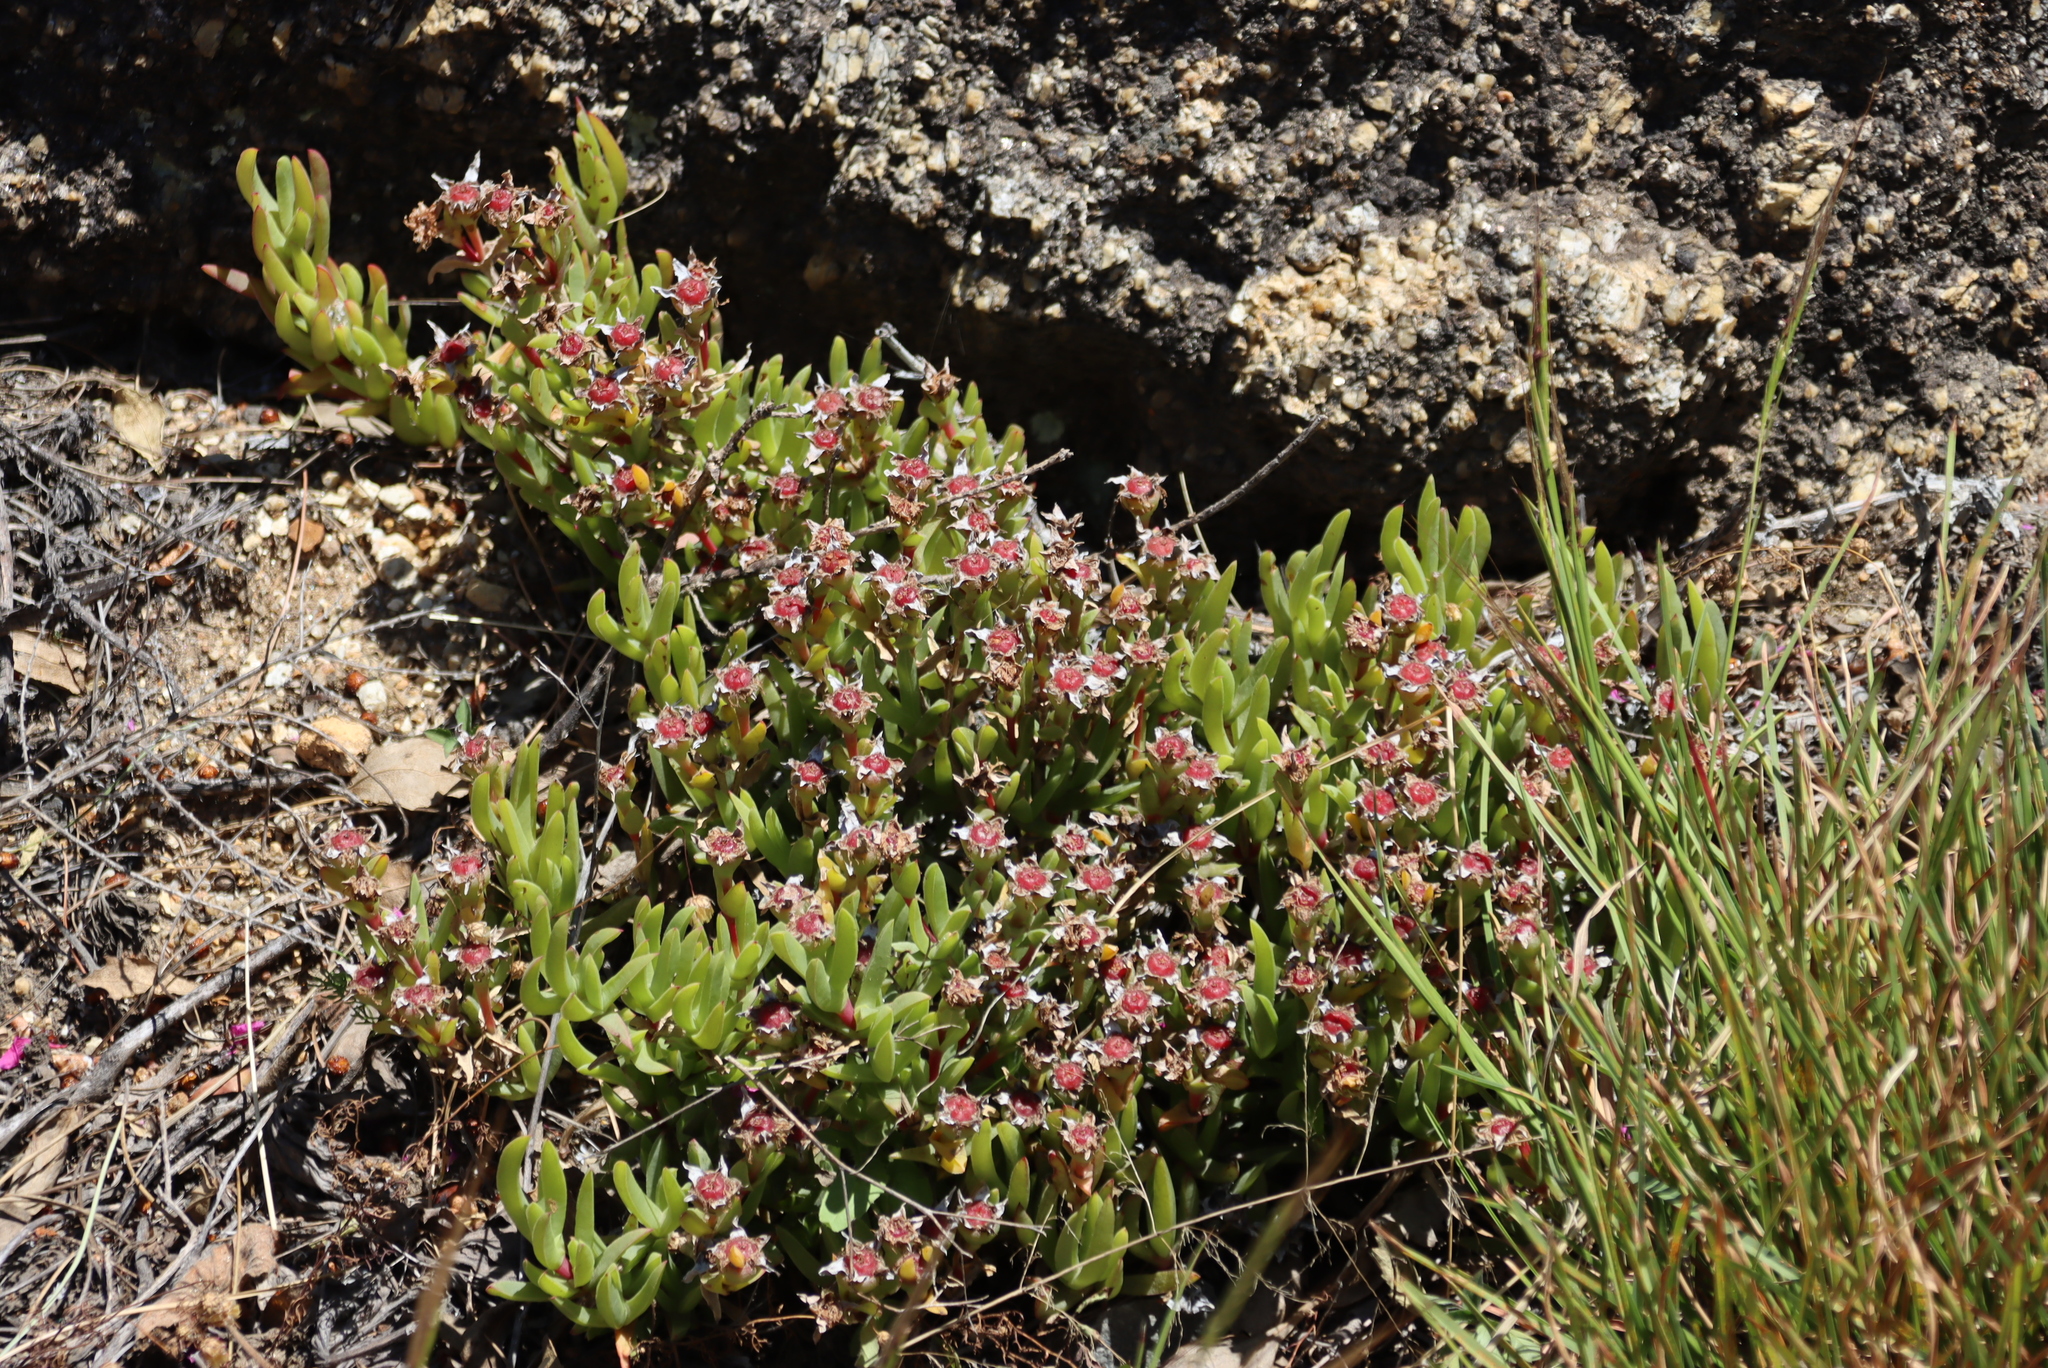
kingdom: Plantae
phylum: Tracheophyta
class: Magnoliopsida
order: Caryophyllales
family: Aizoaceae
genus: Ruschia
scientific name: Ruschia rubricaulis
